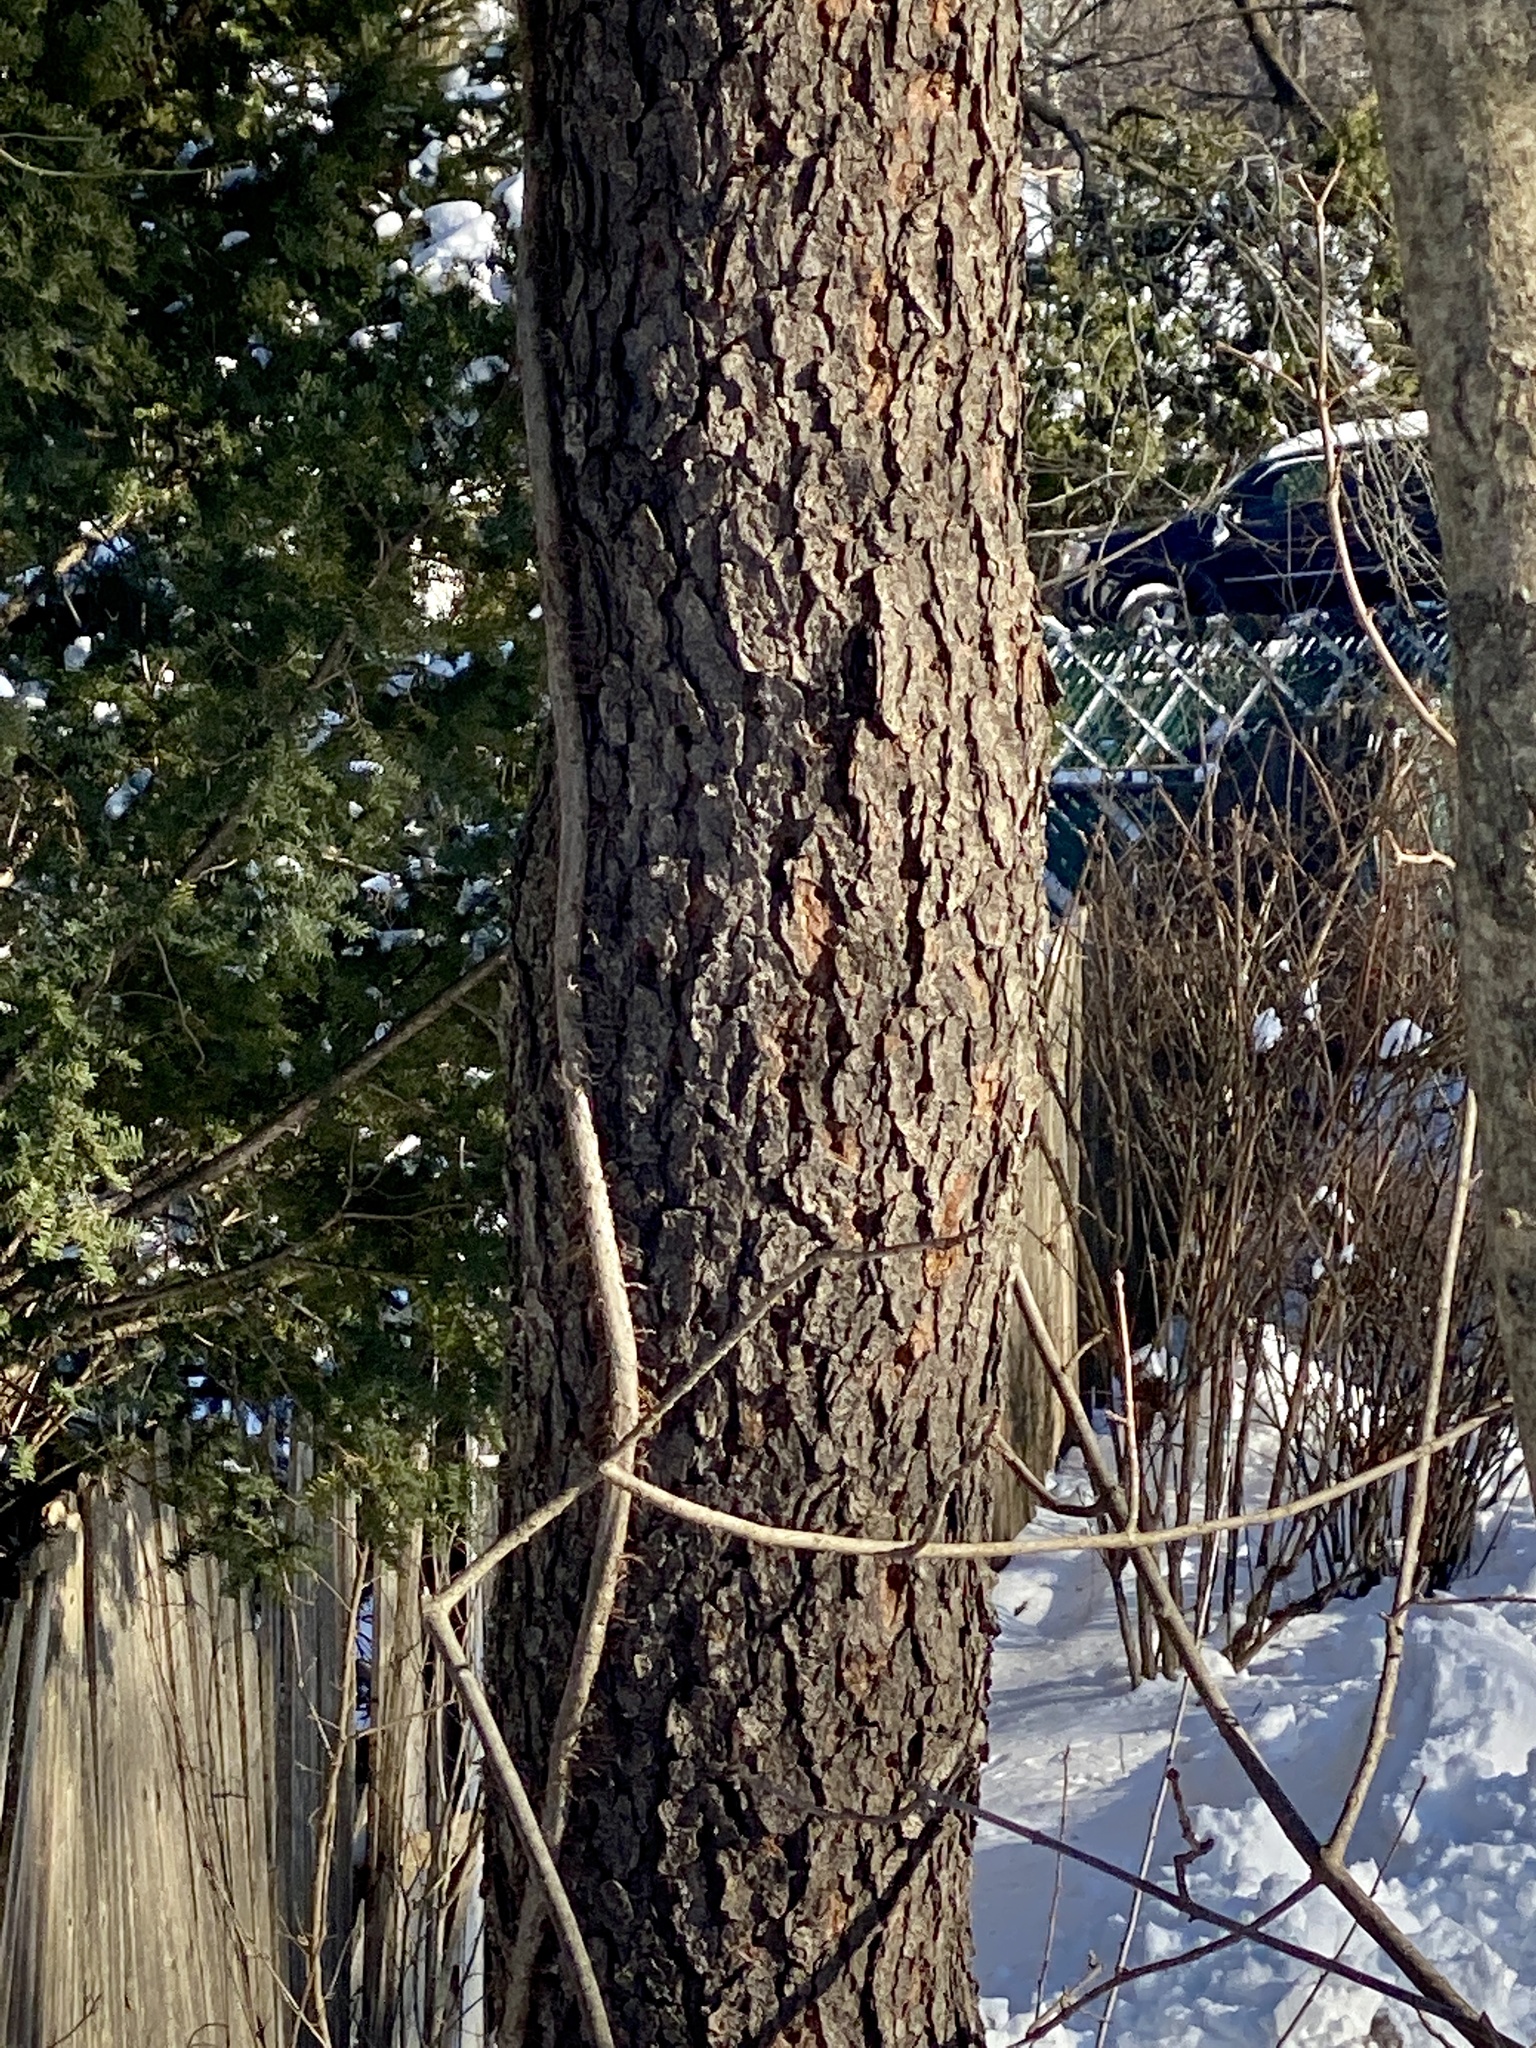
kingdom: Plantae
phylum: Tracheophyta
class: Magnoliopsida
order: Rosales
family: Rosaceae
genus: Prunus
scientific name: Prunus serotina
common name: Black cherry
